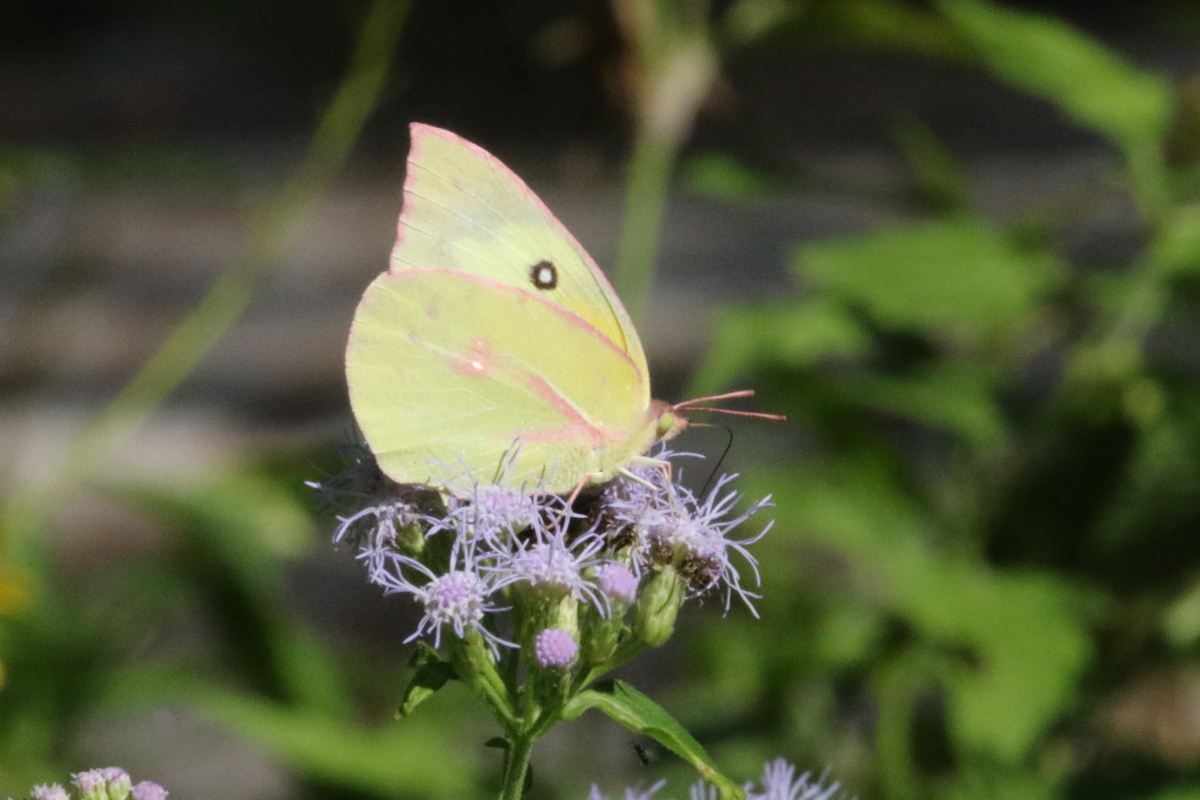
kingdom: Animalia
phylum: Arthropoda
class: Insecta
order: Lepidoptera
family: Pieridae
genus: Zerene
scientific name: Zerene cesonia
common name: Southern dogface
